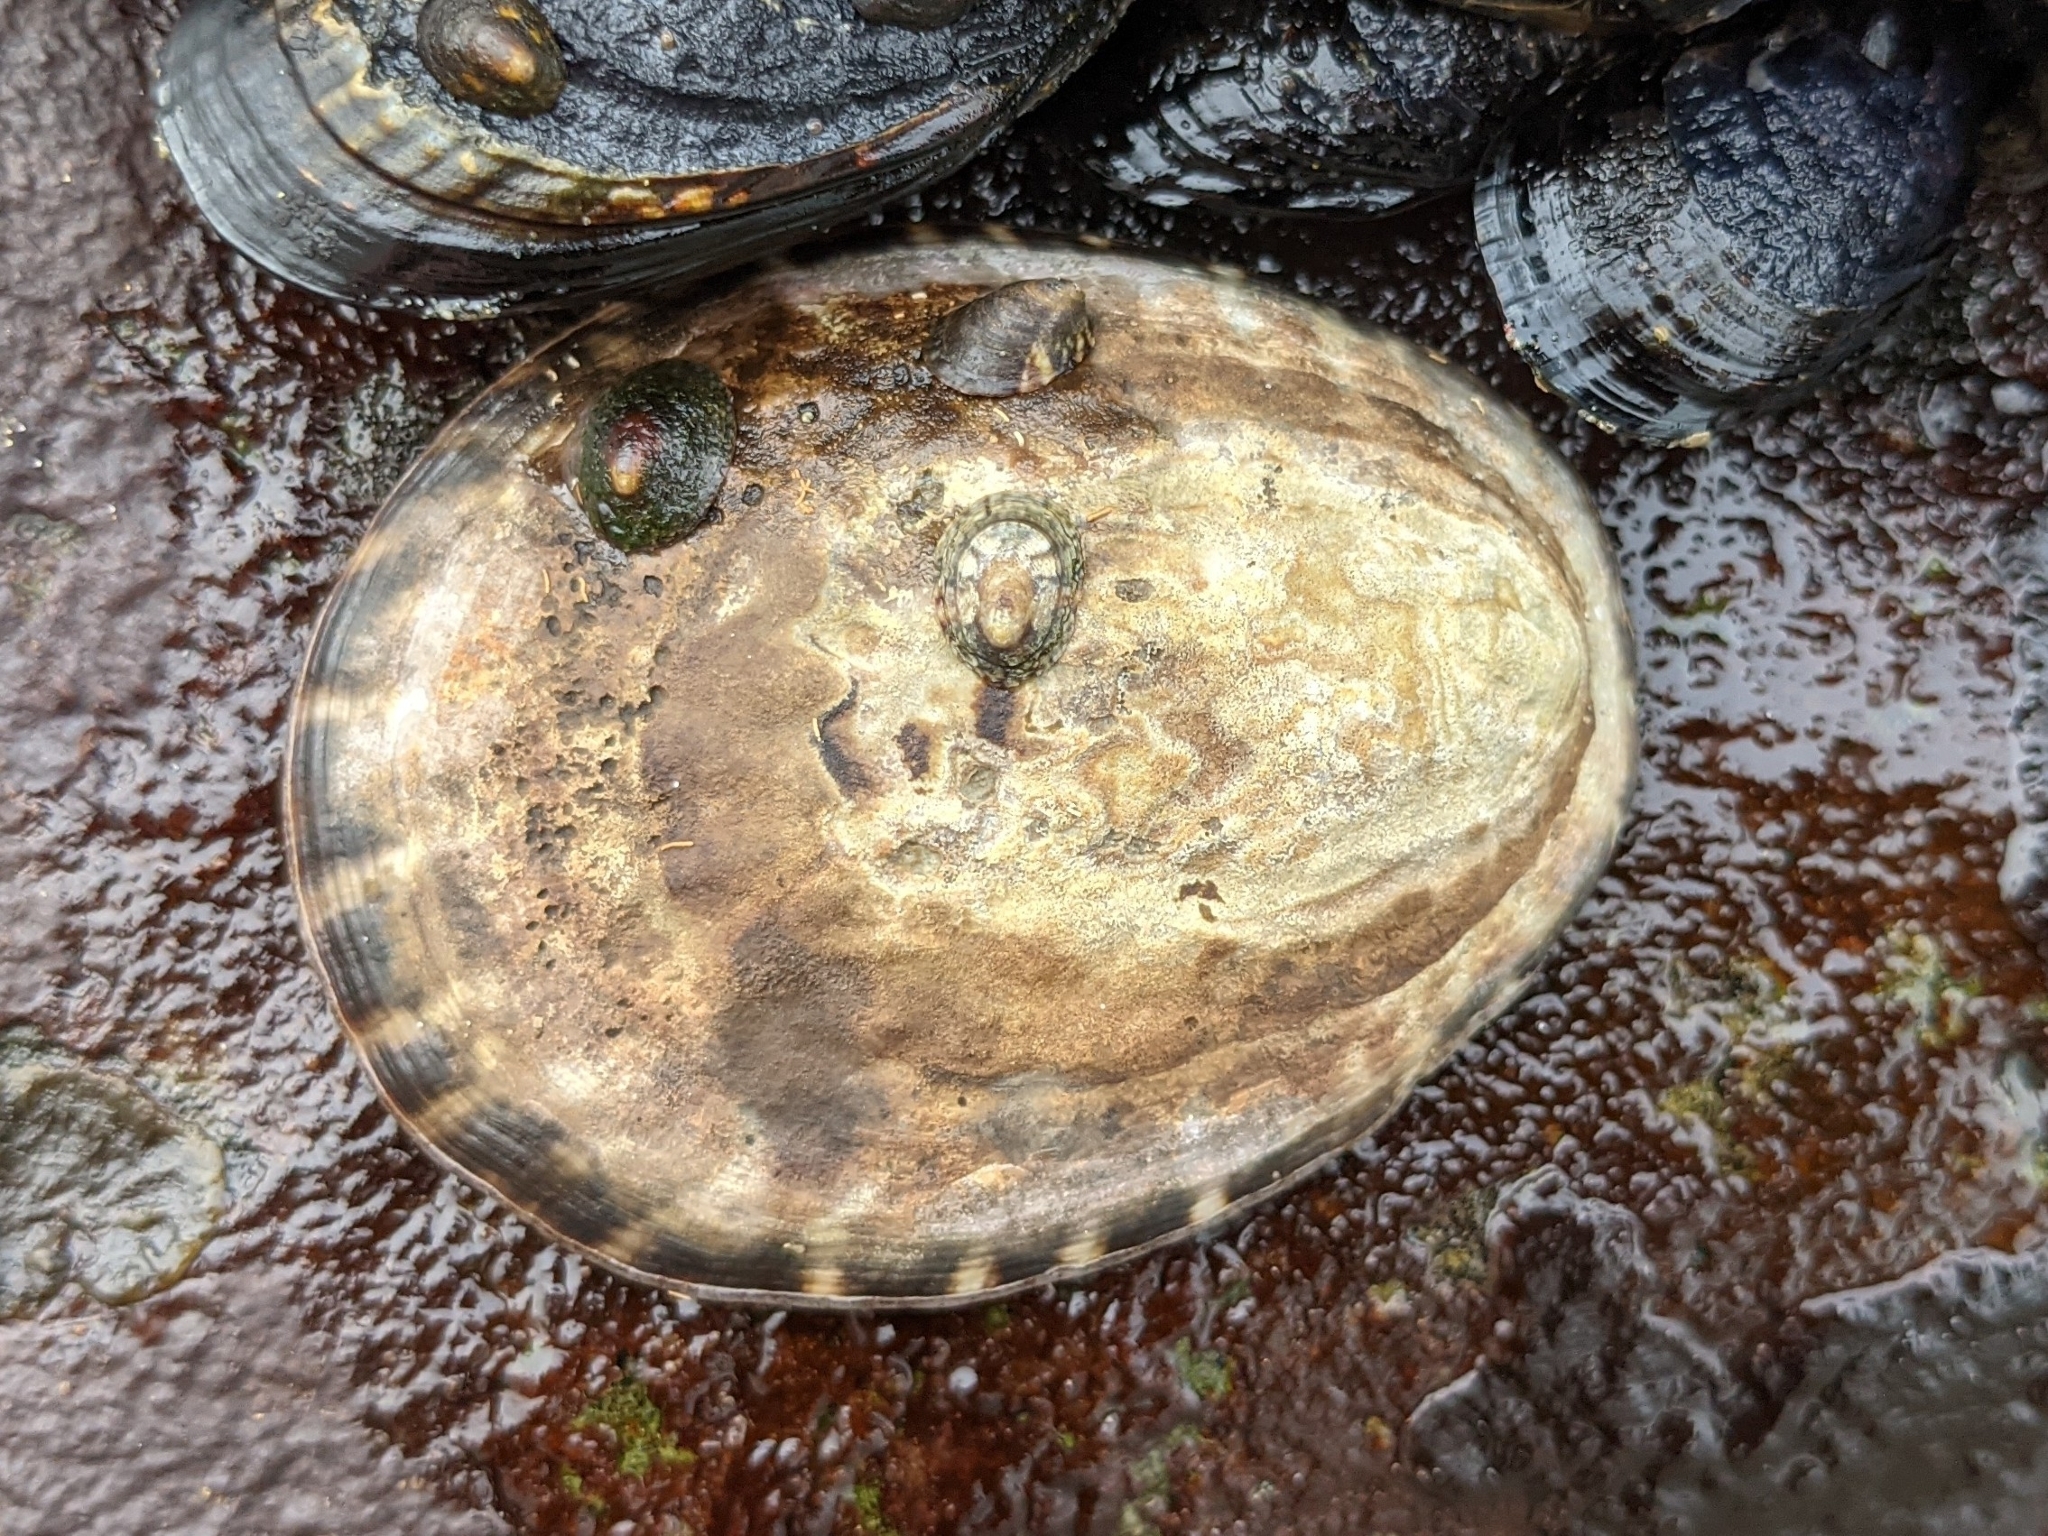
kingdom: Animalia
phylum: Mollusca
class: Gastropoda
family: Lottiidae
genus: Lottia
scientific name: Lottia gigantea
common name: Owl limpet
